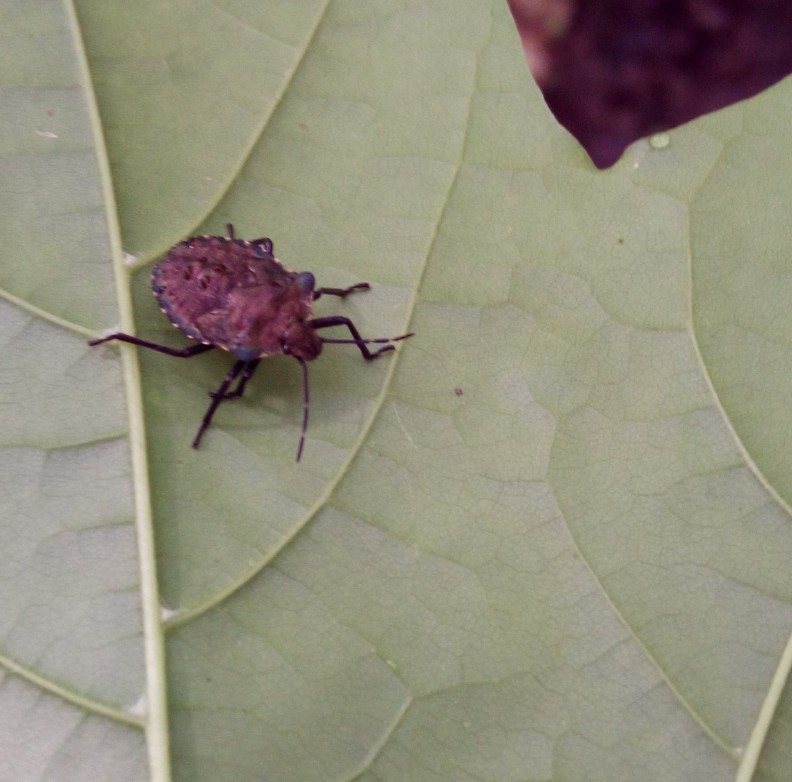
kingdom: Animalia
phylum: Arthropoda
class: Insecta
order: Hemiptera
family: Pentatomidae
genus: Pentatoma
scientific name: Pentatoma rufipes
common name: Forest bug
